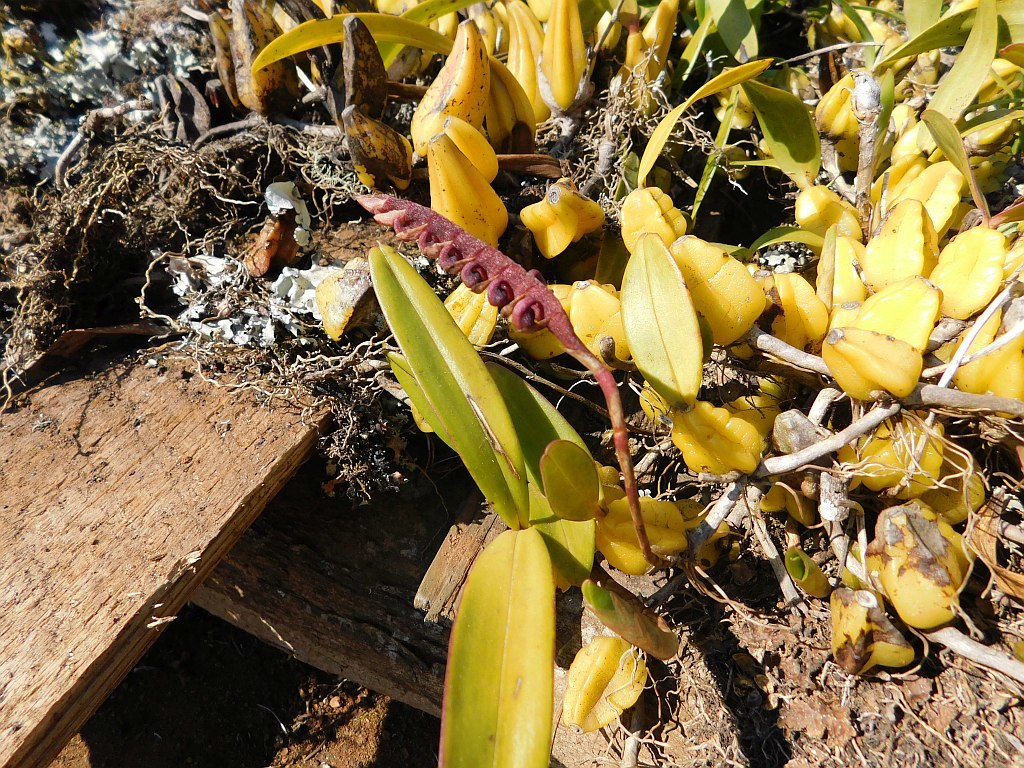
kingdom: Plantae
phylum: Tracheophyta
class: Liliopsida
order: Asparagales
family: Orchidaceae
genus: Bulbophyllum
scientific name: Bulbophyllum scaberulum
